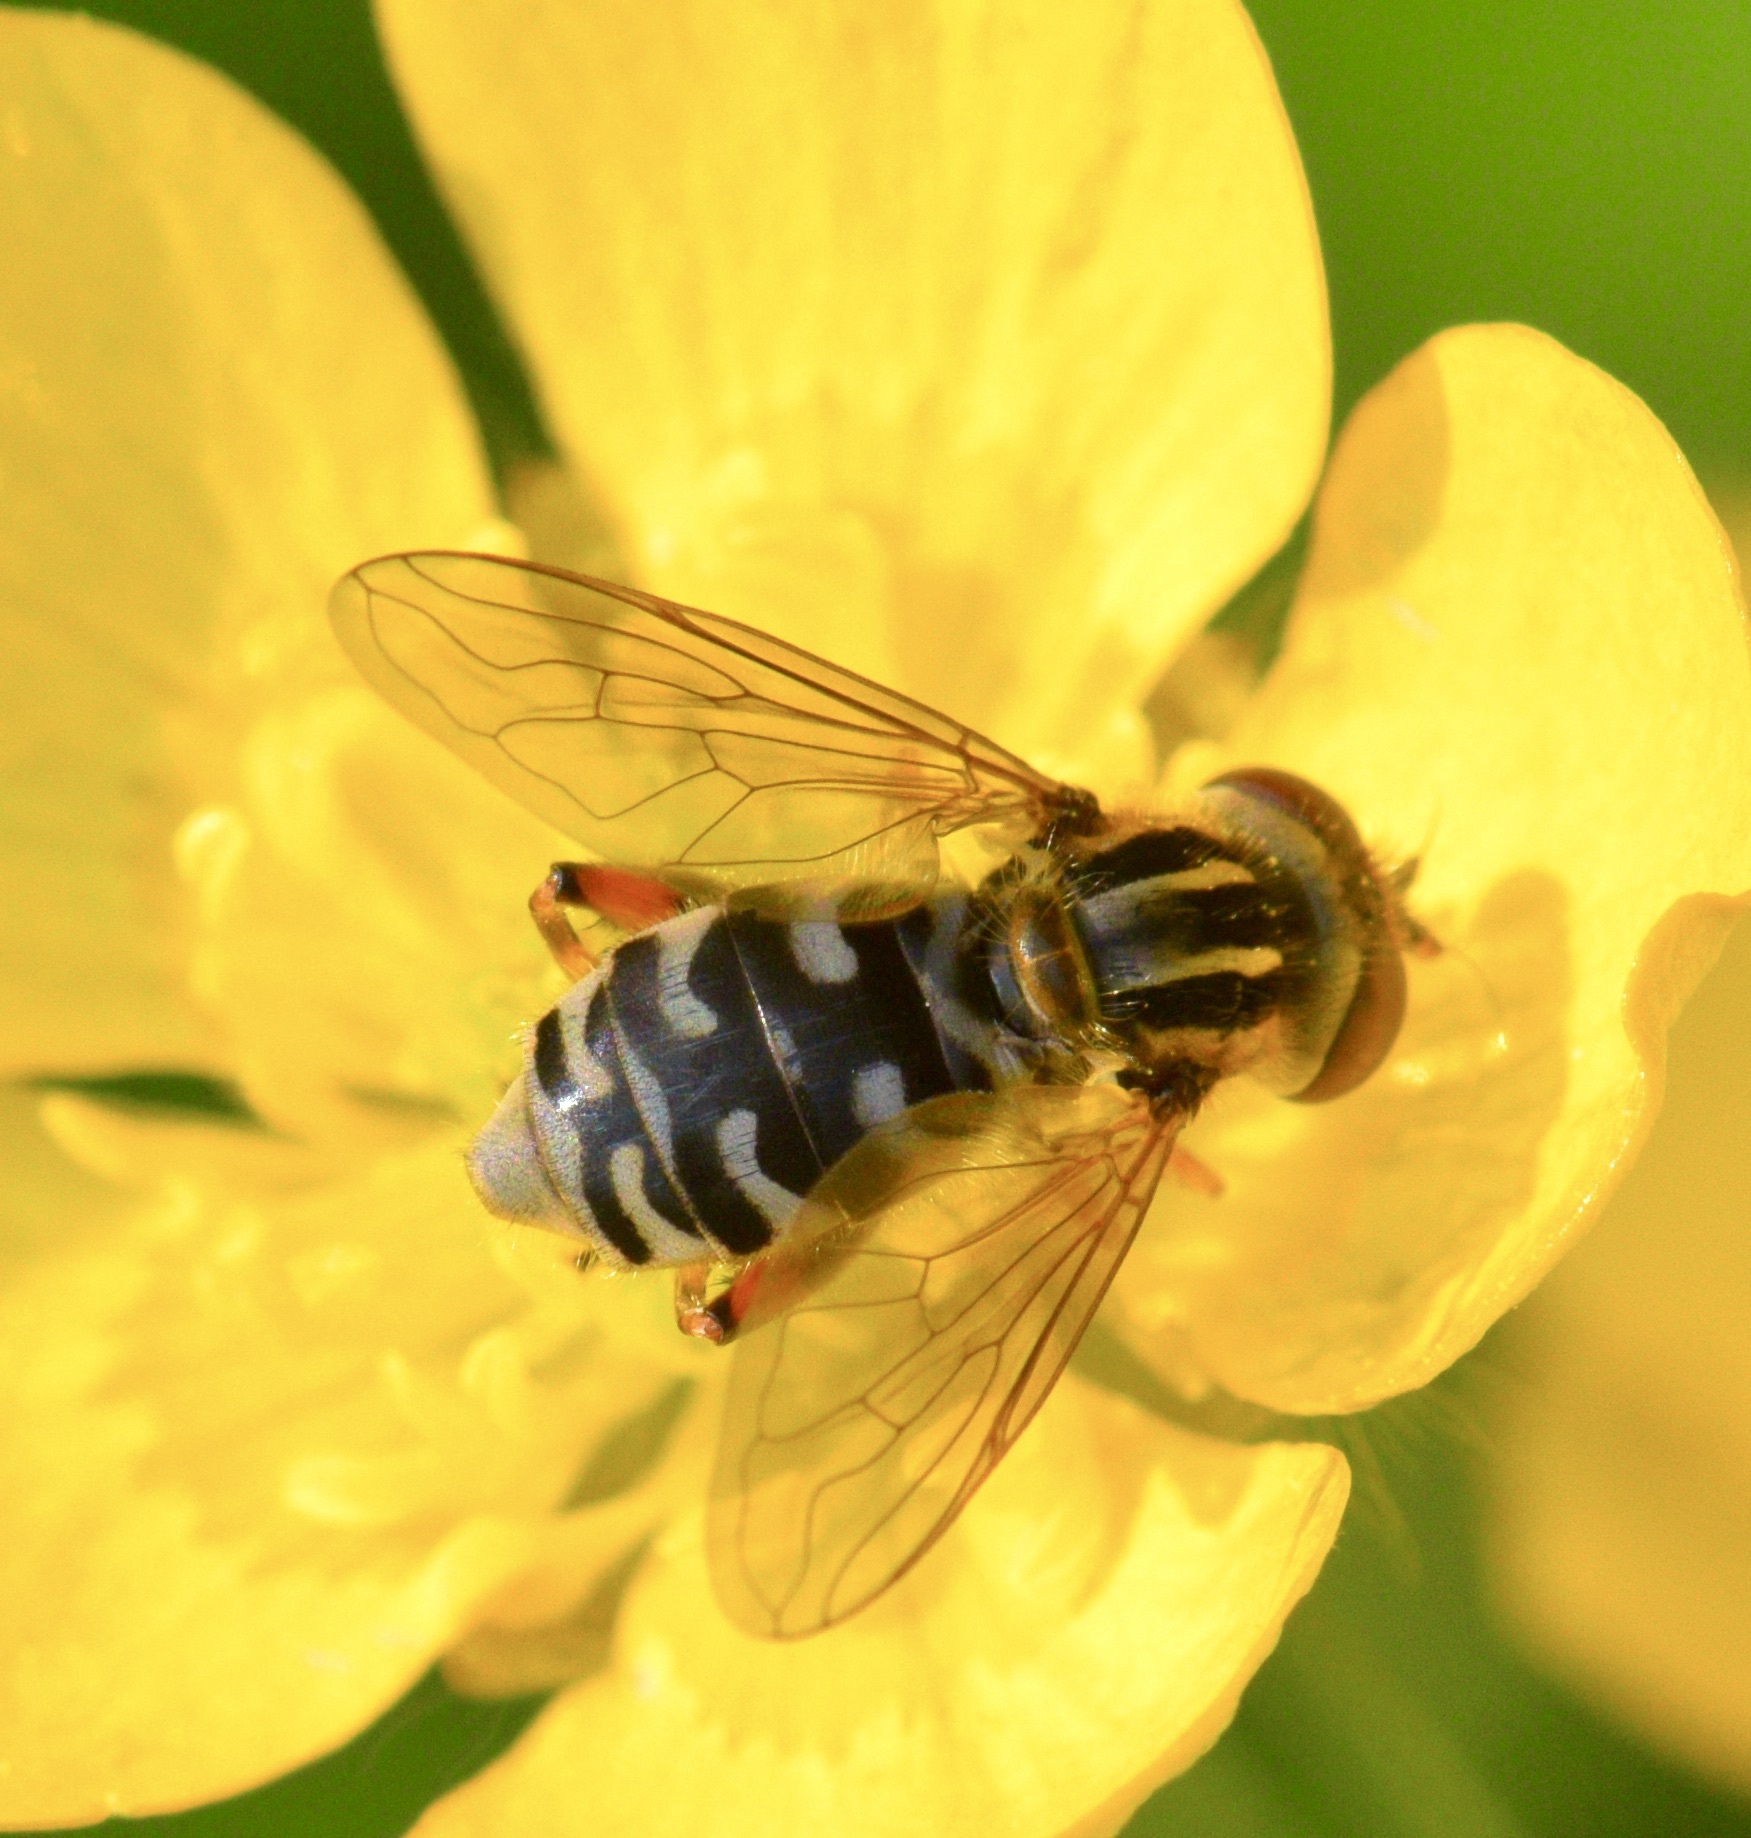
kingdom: Animalia
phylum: Arthropoda
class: Insecta
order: Diptera
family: Syrphidae
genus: Eurimyia
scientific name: Eurimyia stipatus
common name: Long-nosed swamp fly
